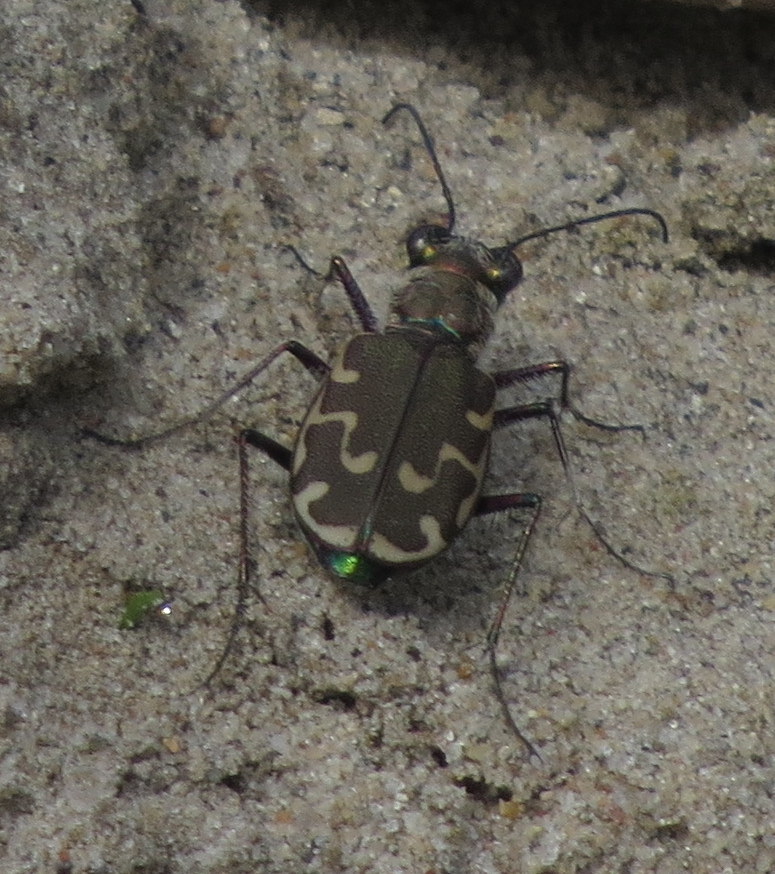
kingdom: Animalia
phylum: Arthropoda
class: Insecta
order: Coleoptera
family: Carabidae
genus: Cicindela
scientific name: Cicindela repanda
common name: Bronzed tiger beetle
